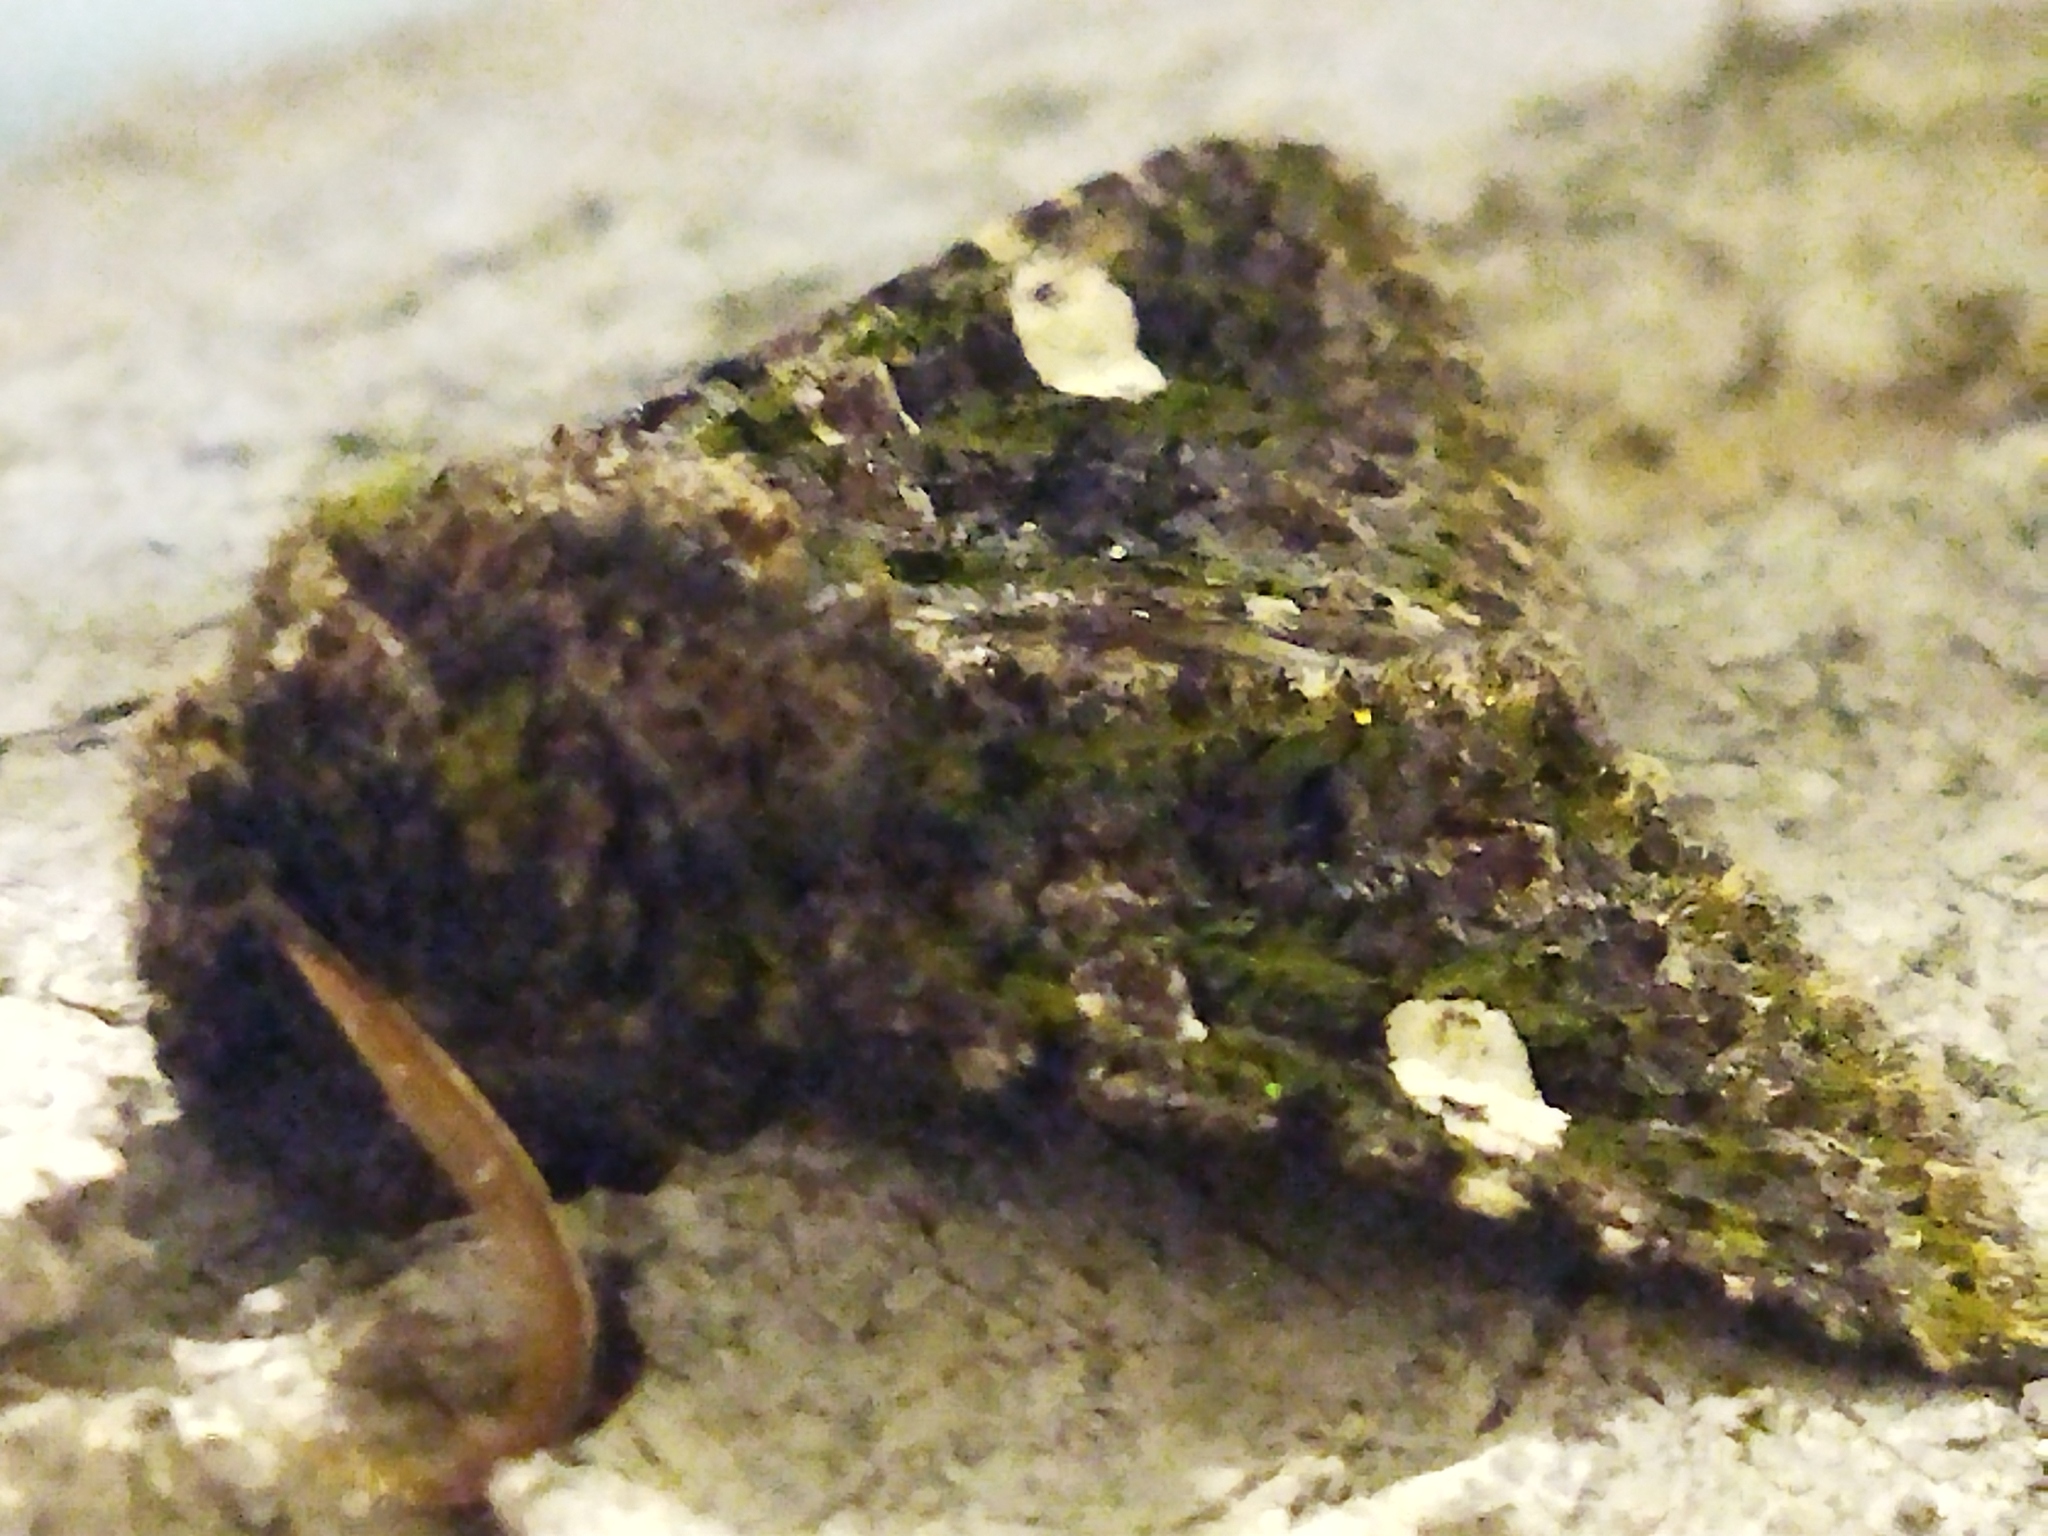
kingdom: Animalia
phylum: Arthropoda
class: Insecta
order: Lepidoptera
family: Noctuidae
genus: Valeria
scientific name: Valeria oleagina
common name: Green-brindled dot
